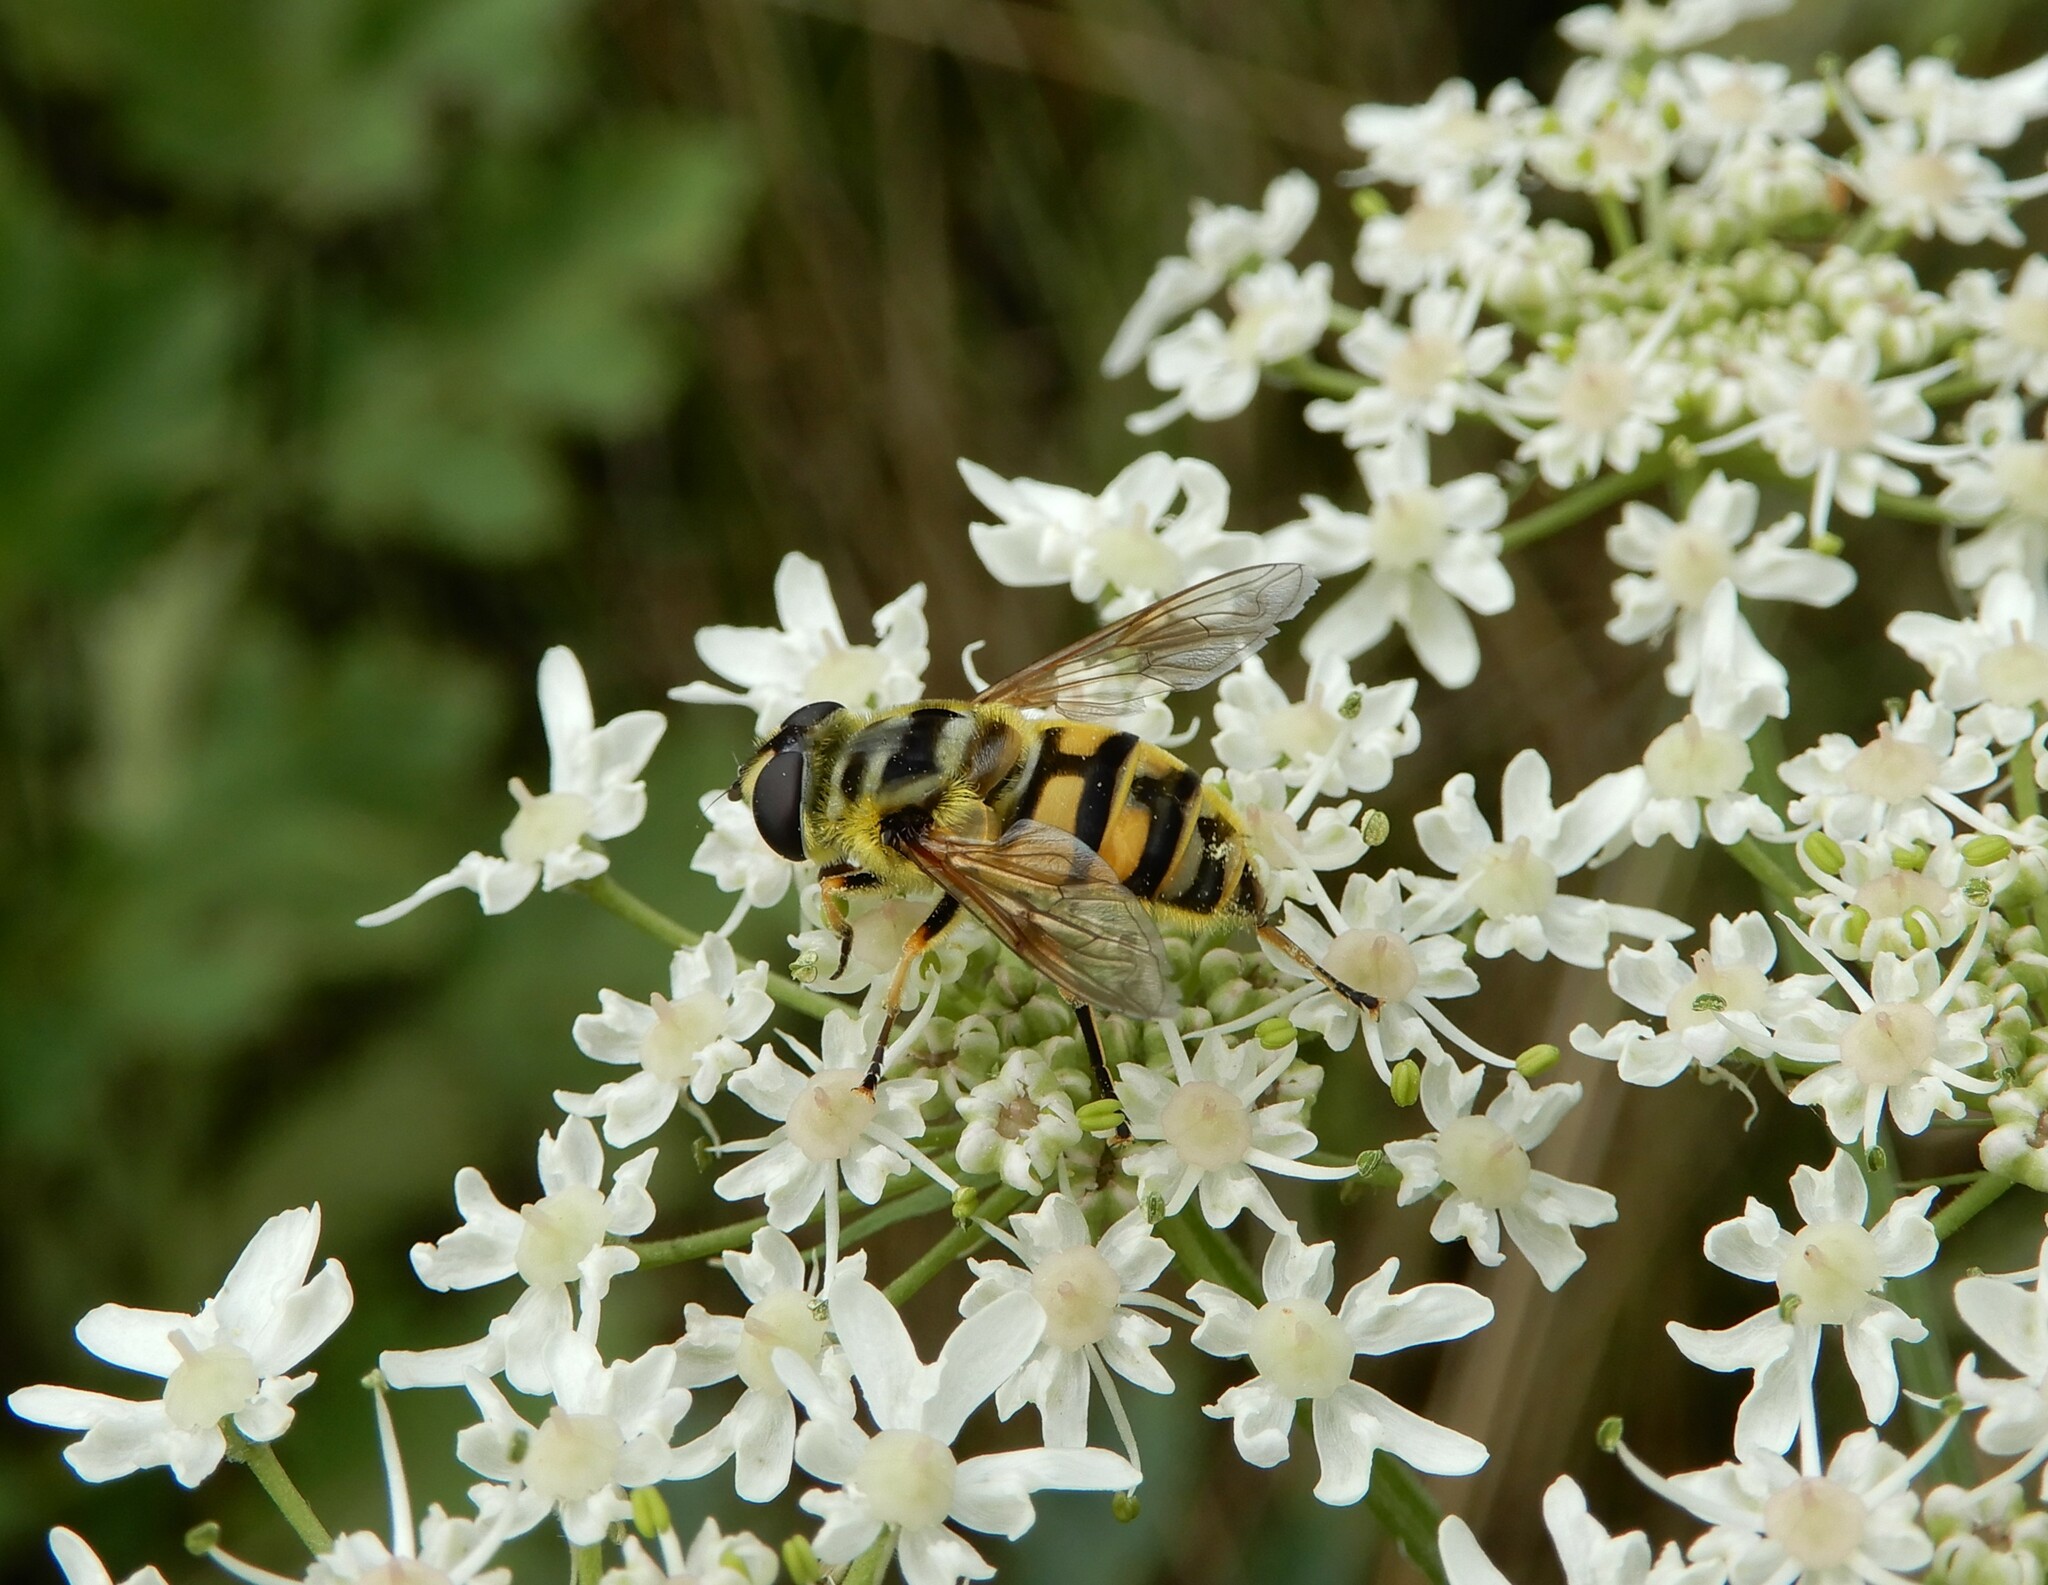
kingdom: Animalia
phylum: Arthropoda
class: Insecta
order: Diptera
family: Syrphidae
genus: Myathropa
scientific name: Myathropa florea
